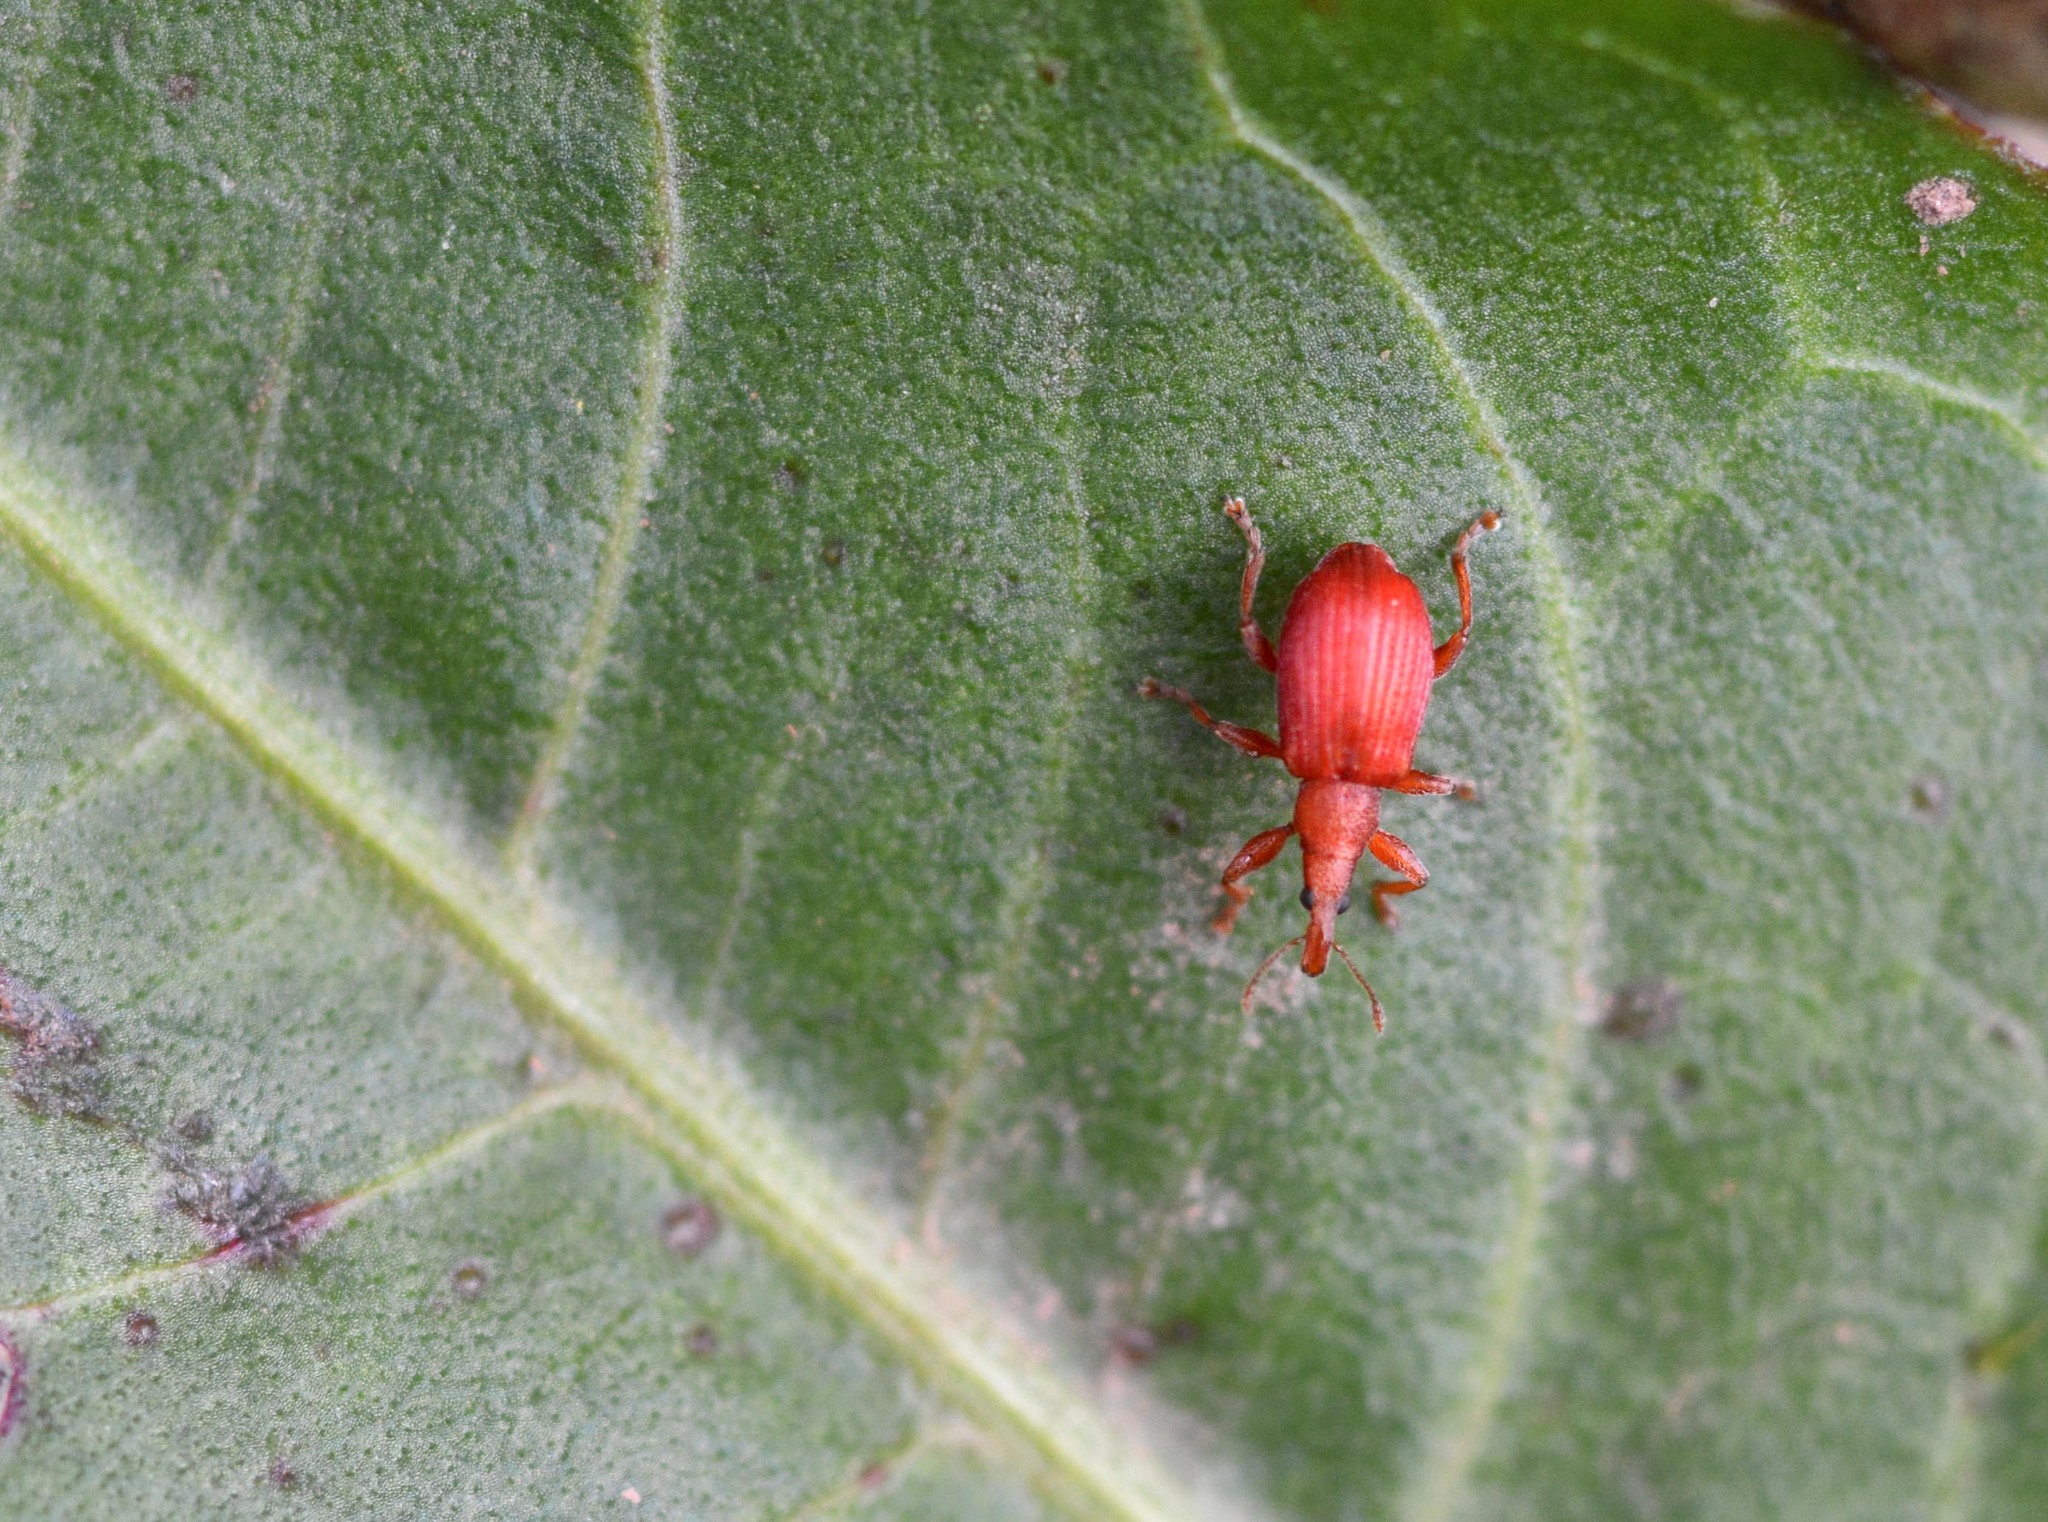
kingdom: Animalia
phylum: Arthropoda
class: Insecta
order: Coleoptera
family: Apionidae
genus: Apion
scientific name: Apion frumentarium
